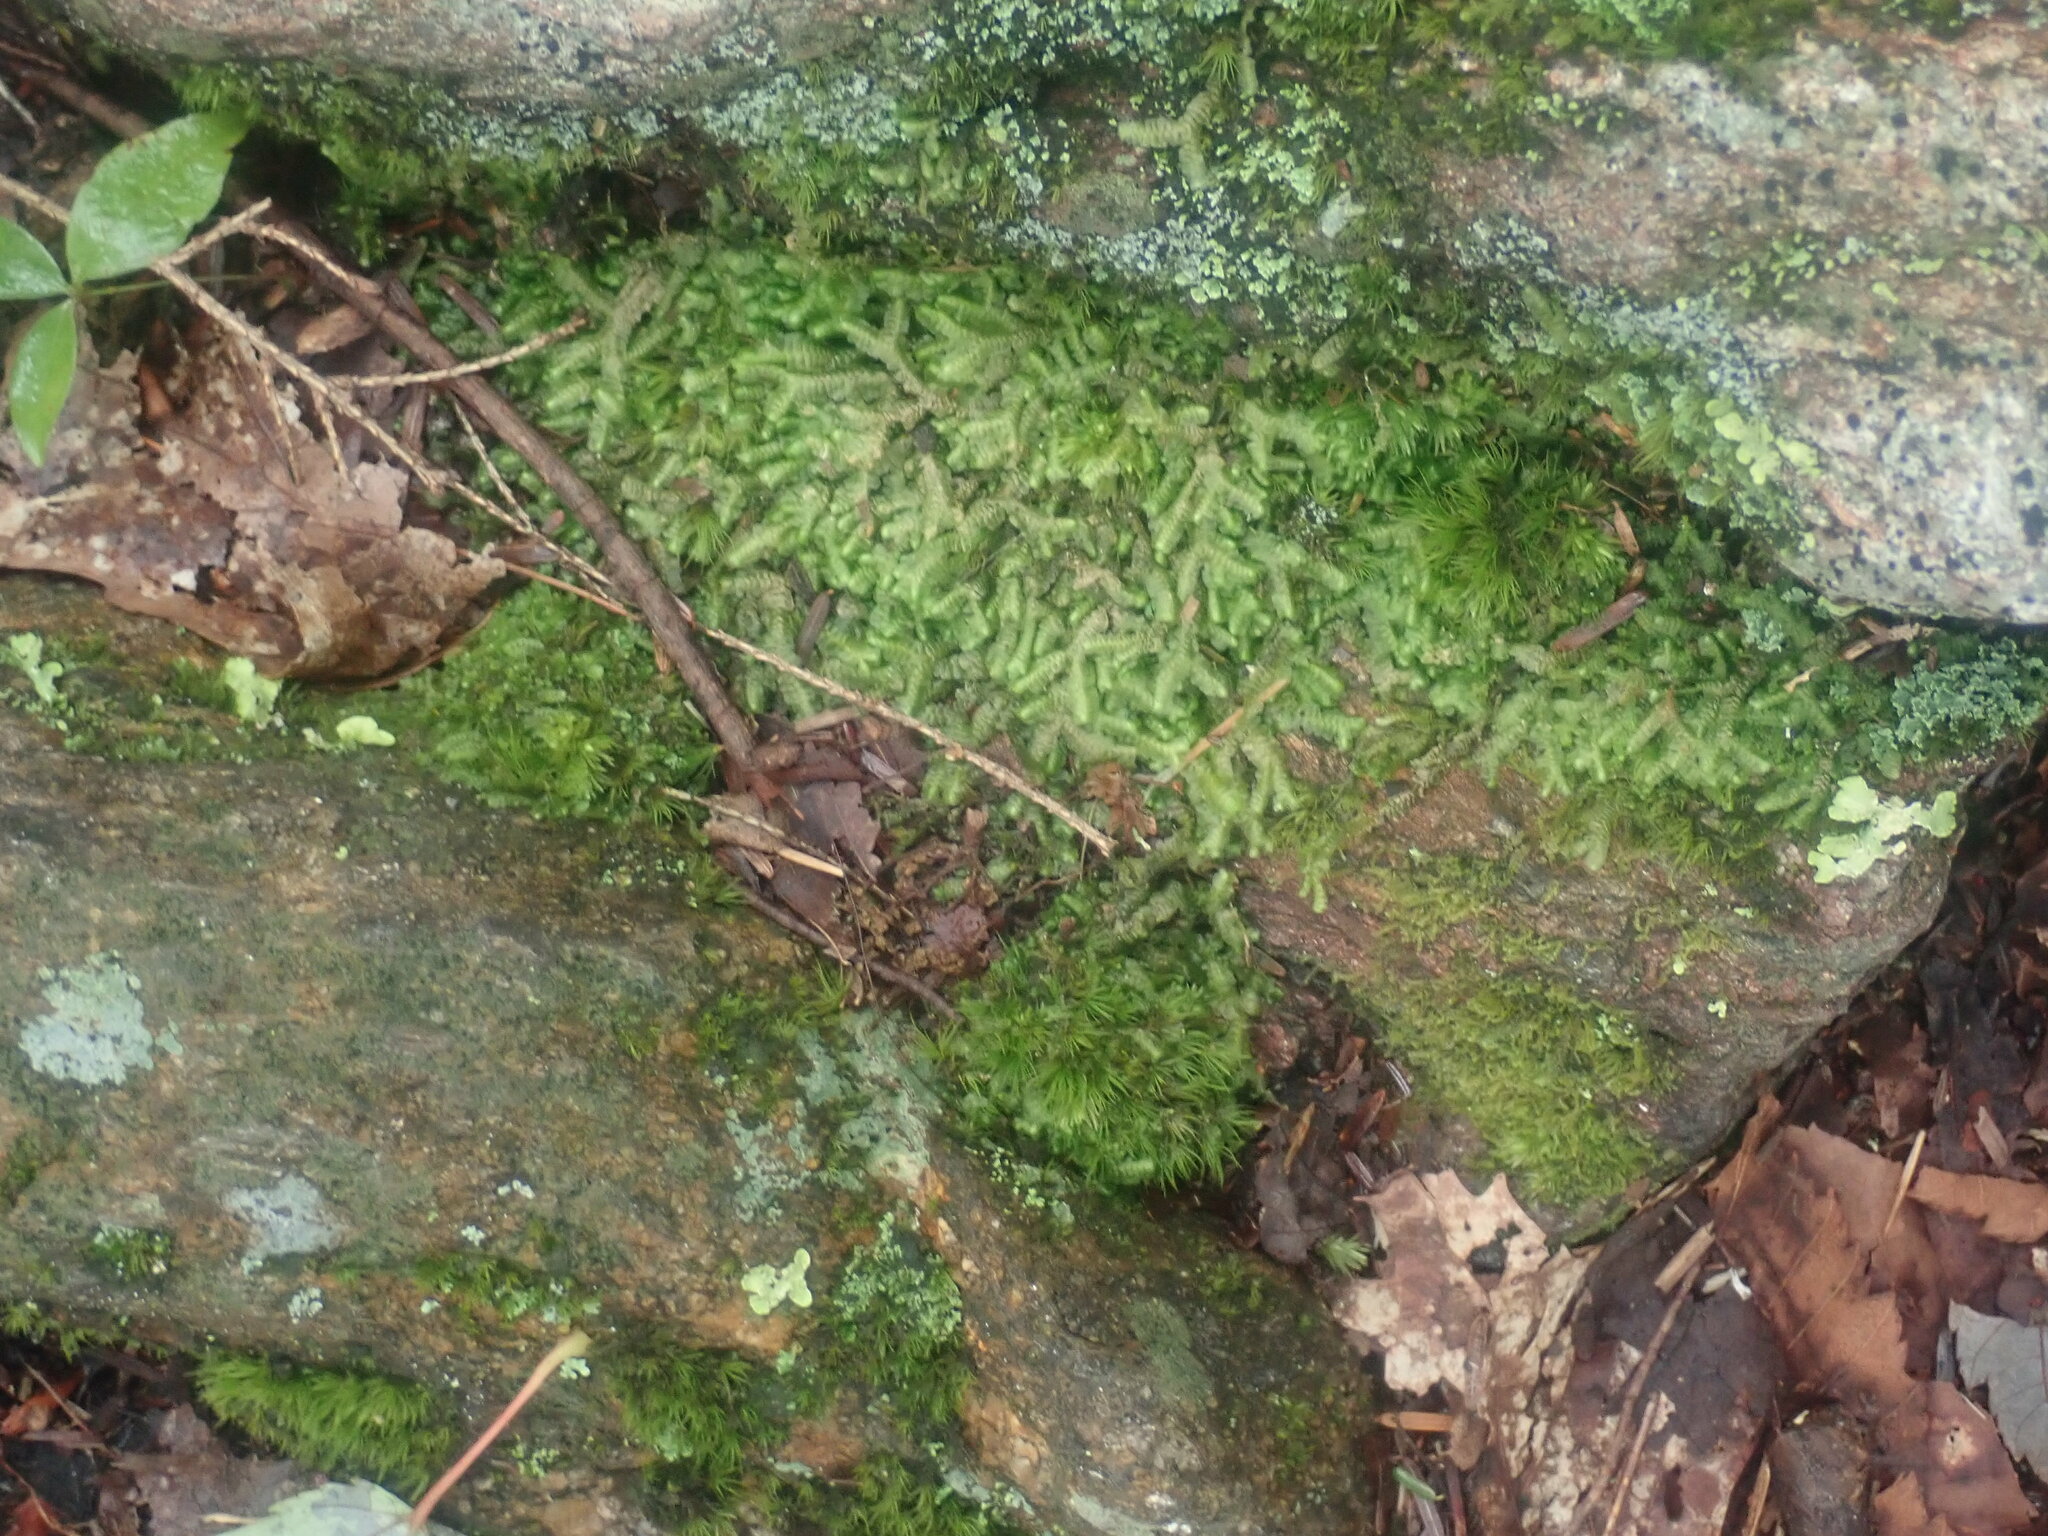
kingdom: Plantae
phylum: Marchantiophyta
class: Jungermanniopsida
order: Jungermanniales
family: Lepidoziaceae
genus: Bazzania
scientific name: Bazzania trilobata
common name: Three-lobed whipwort
